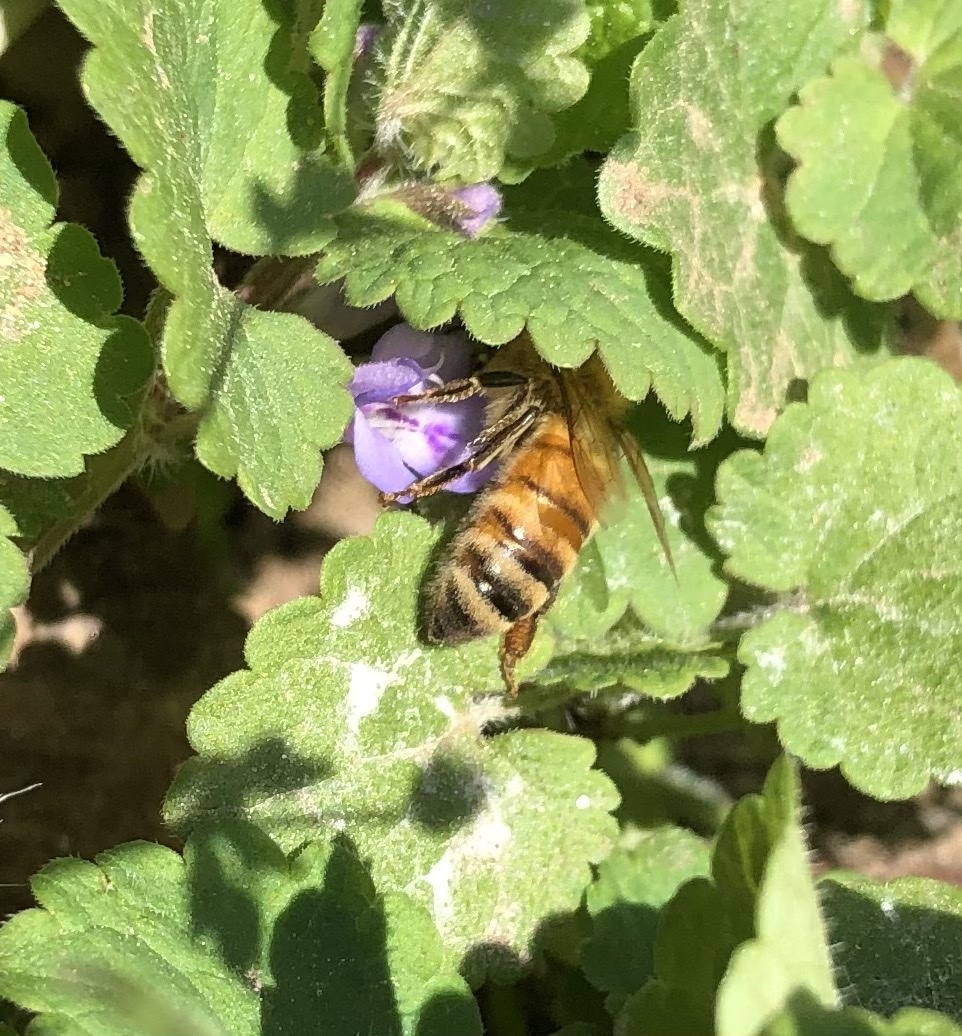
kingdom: Animalia
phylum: Arthropoda
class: Insecta
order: Hymenoptera
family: Apidae
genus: Apis
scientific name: Apis mellifera
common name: Honey bee
